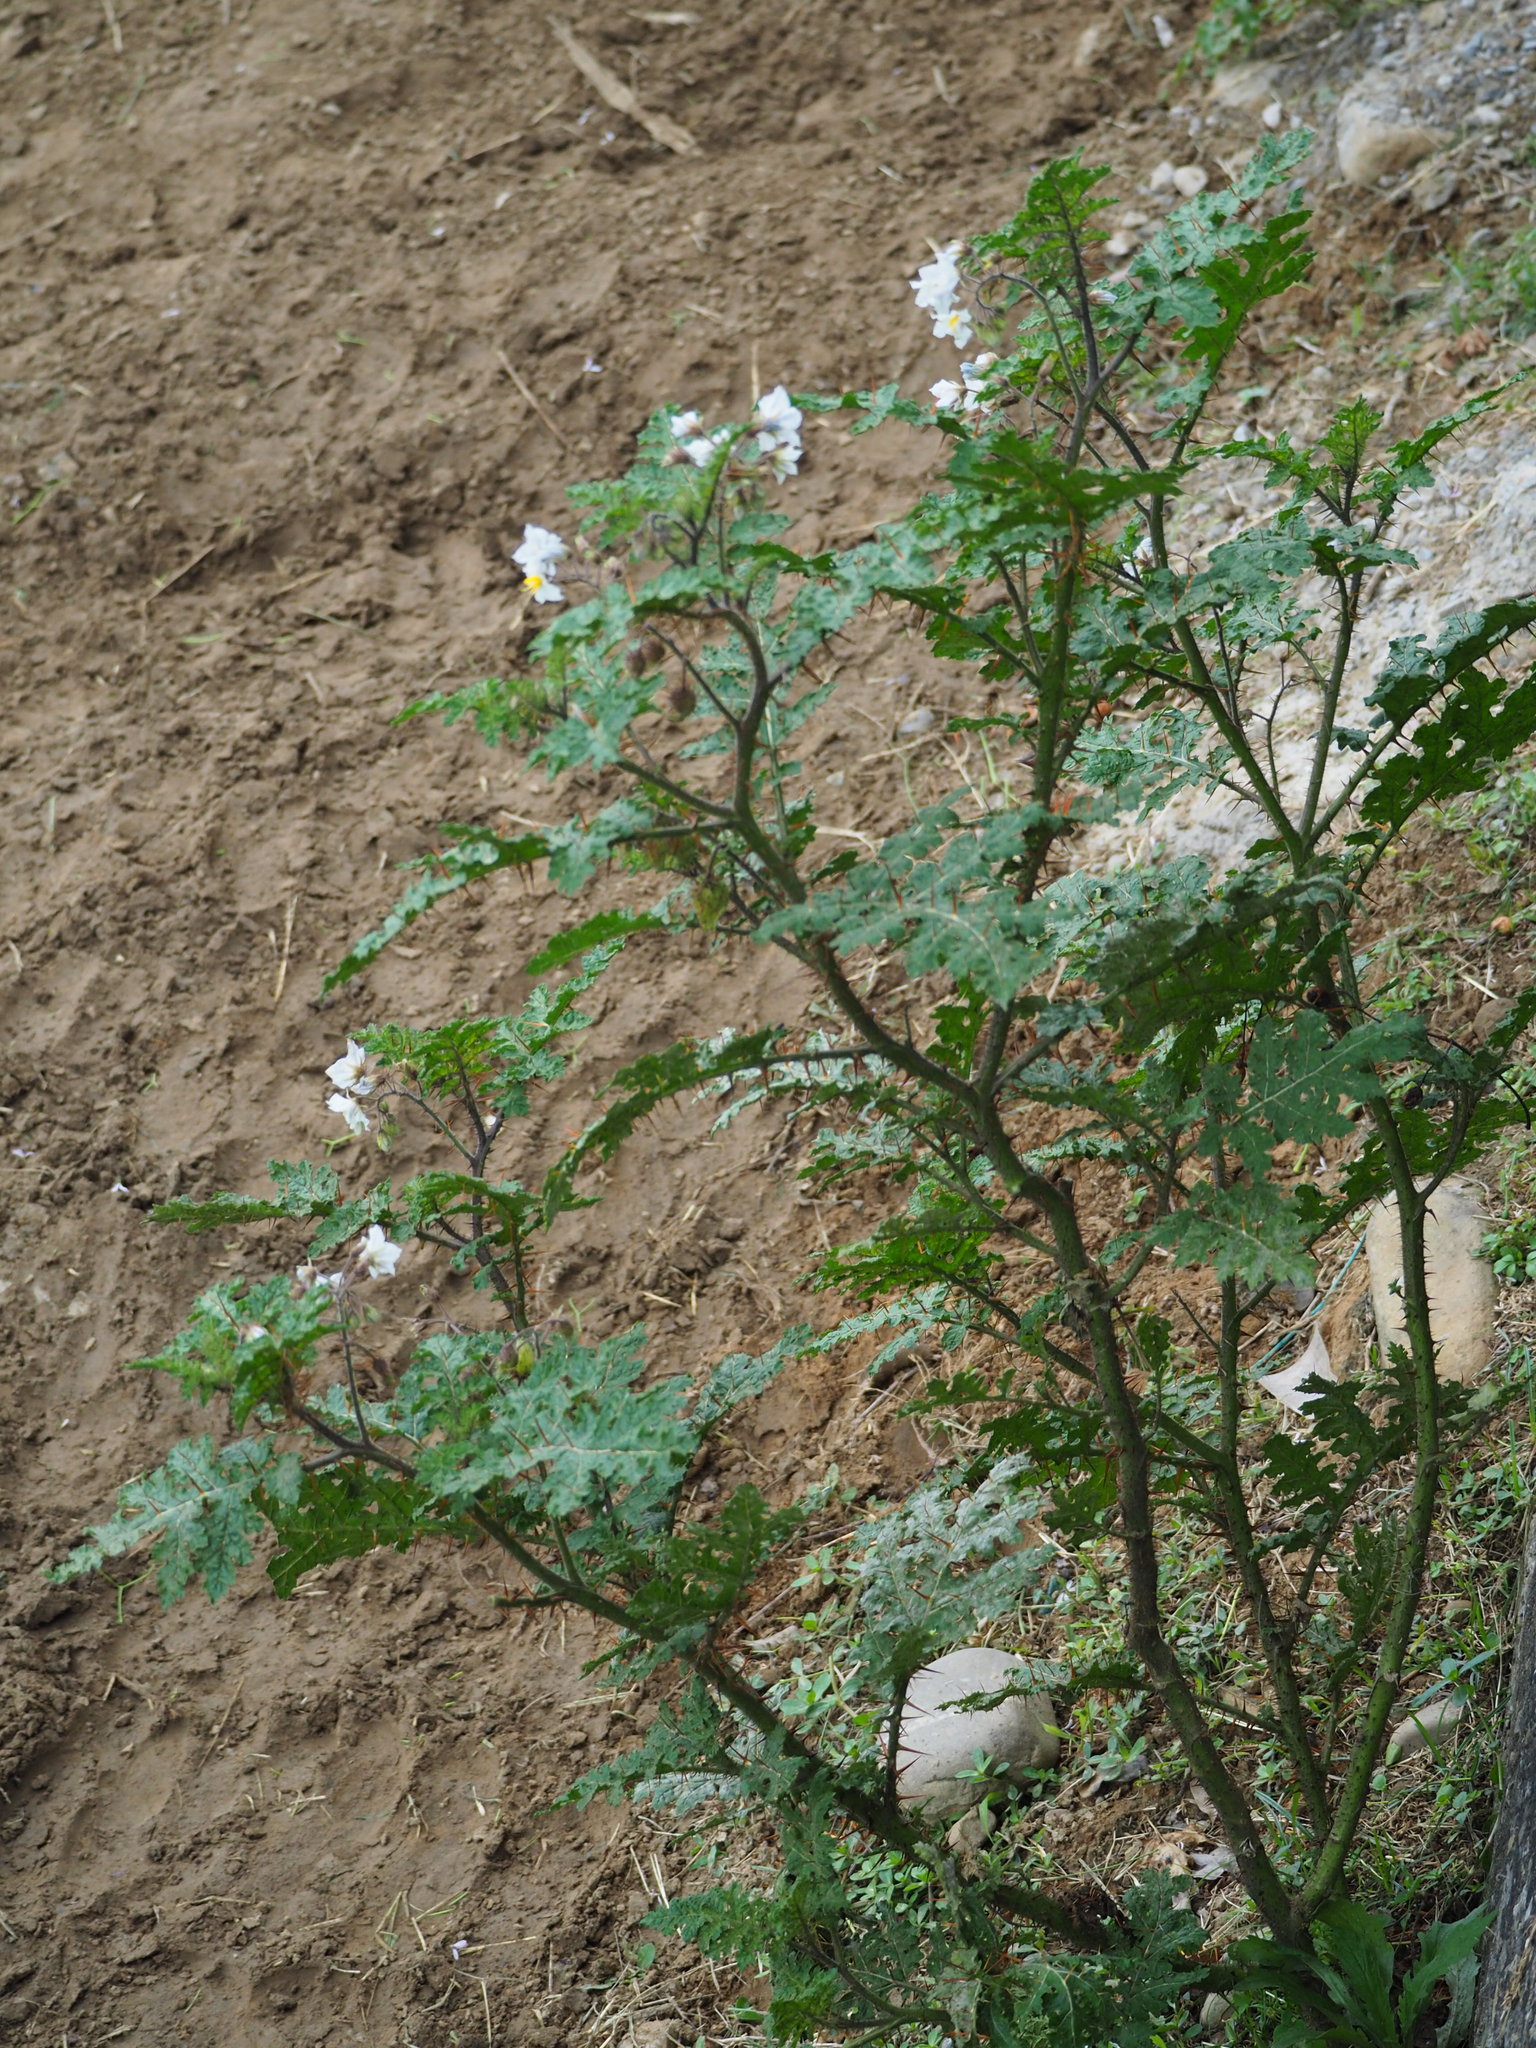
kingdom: Plantae
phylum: Tracheophyta
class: Magnoliopsida
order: Solanales
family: Solanaceae
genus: Solanum
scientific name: Solanum sisymbriifolium
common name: Red buffalo-bur
